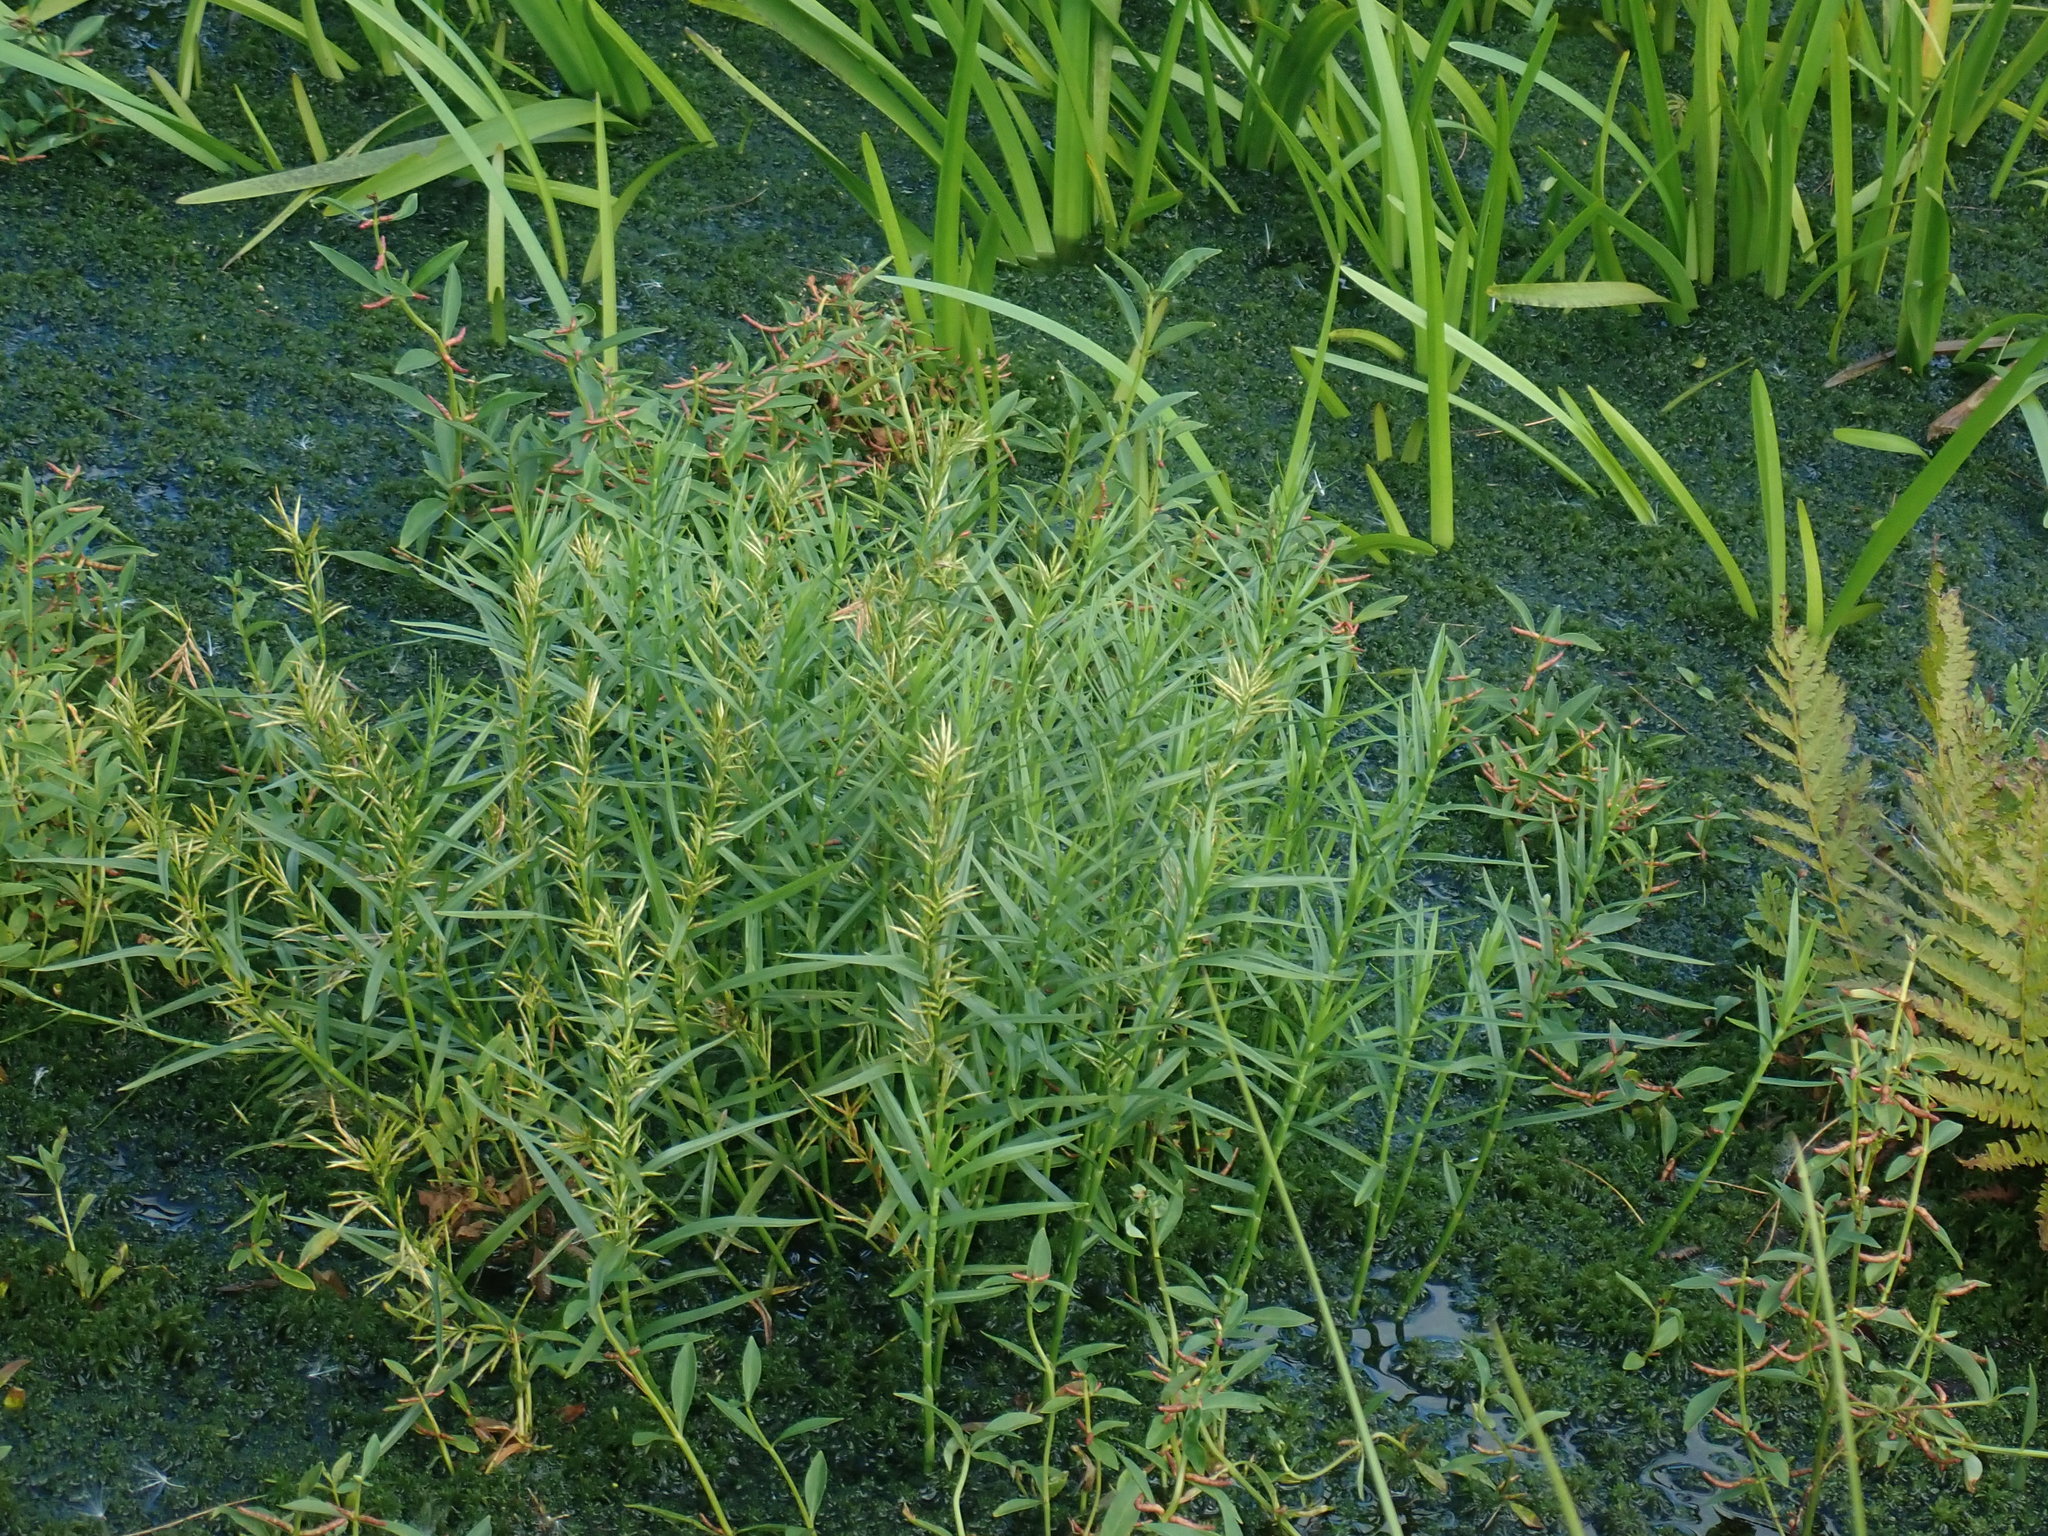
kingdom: Plantae
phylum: Tracheophyta
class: Liliopsida
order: Poales
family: Cyperaceae
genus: Dulichium
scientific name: Dulichium arundinaceum
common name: Three-way sedge
